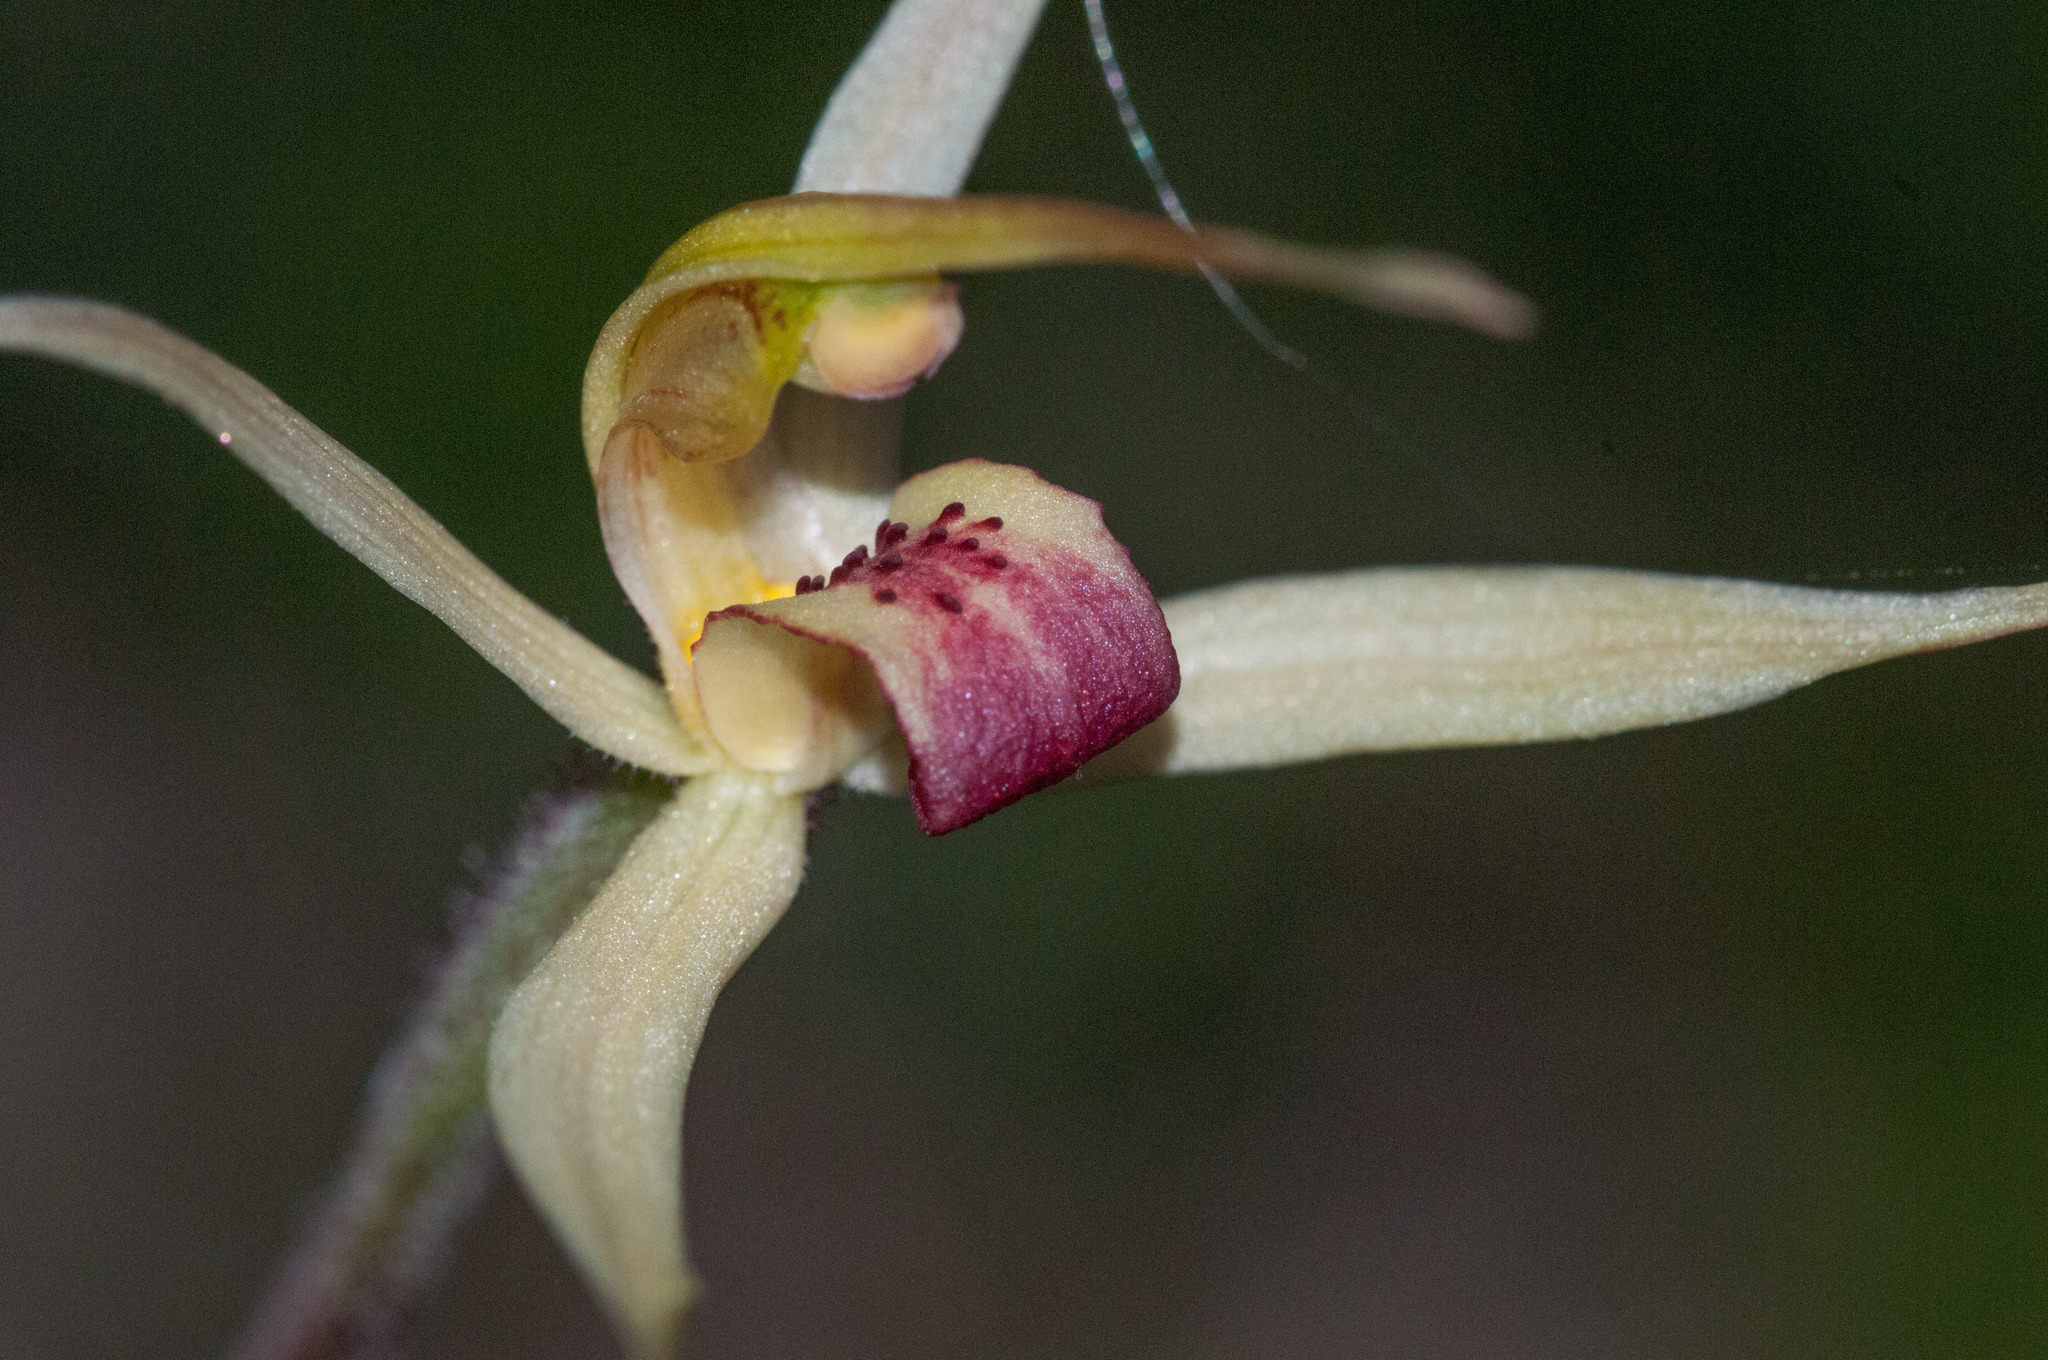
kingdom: Plantae
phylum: Tracheophyta
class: Liliopsida
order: Asparagales
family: Orchidaceae
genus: Caladenia
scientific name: Caladenia leptochila
